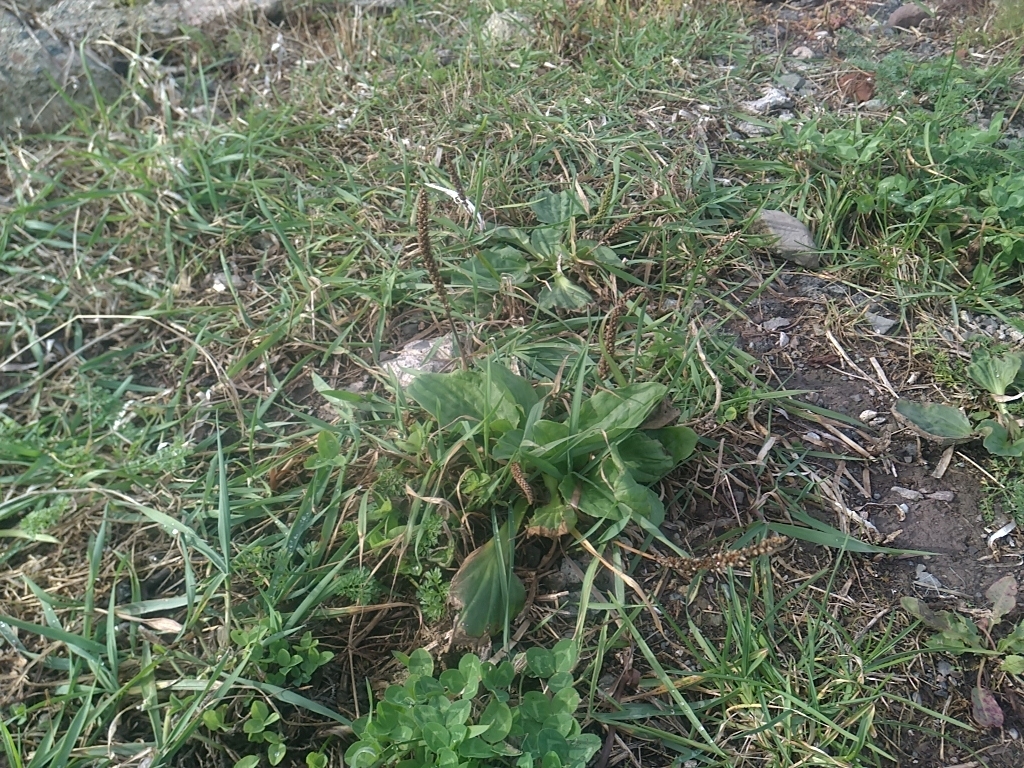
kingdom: Plantae
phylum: Tracheophyta
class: Magnoliopsida
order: Fabales
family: Fabaceae
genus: Trifolium
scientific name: Trifolium pratense
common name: Red clover
